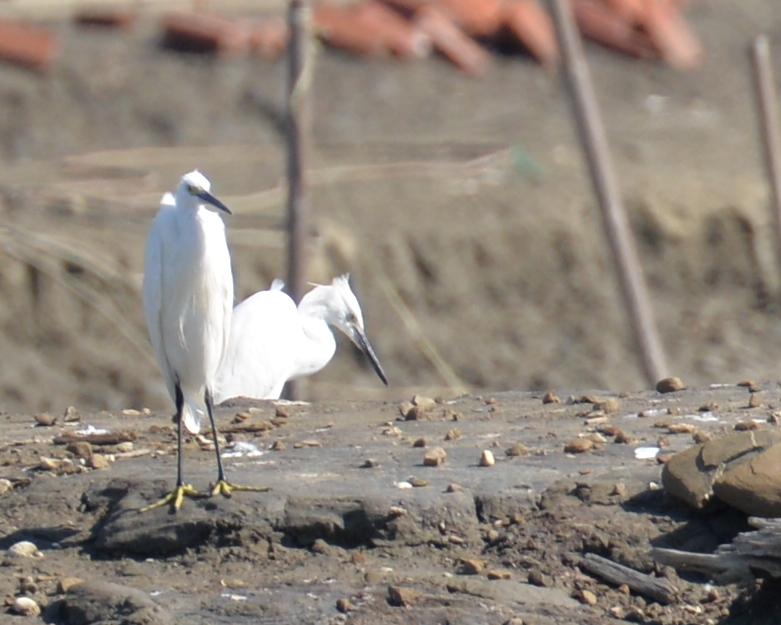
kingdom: Animalia
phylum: Chordata
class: Aves
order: Pelecaniformes
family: Ardeidae
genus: Egretta
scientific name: Egretta garzetta
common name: Little egret
